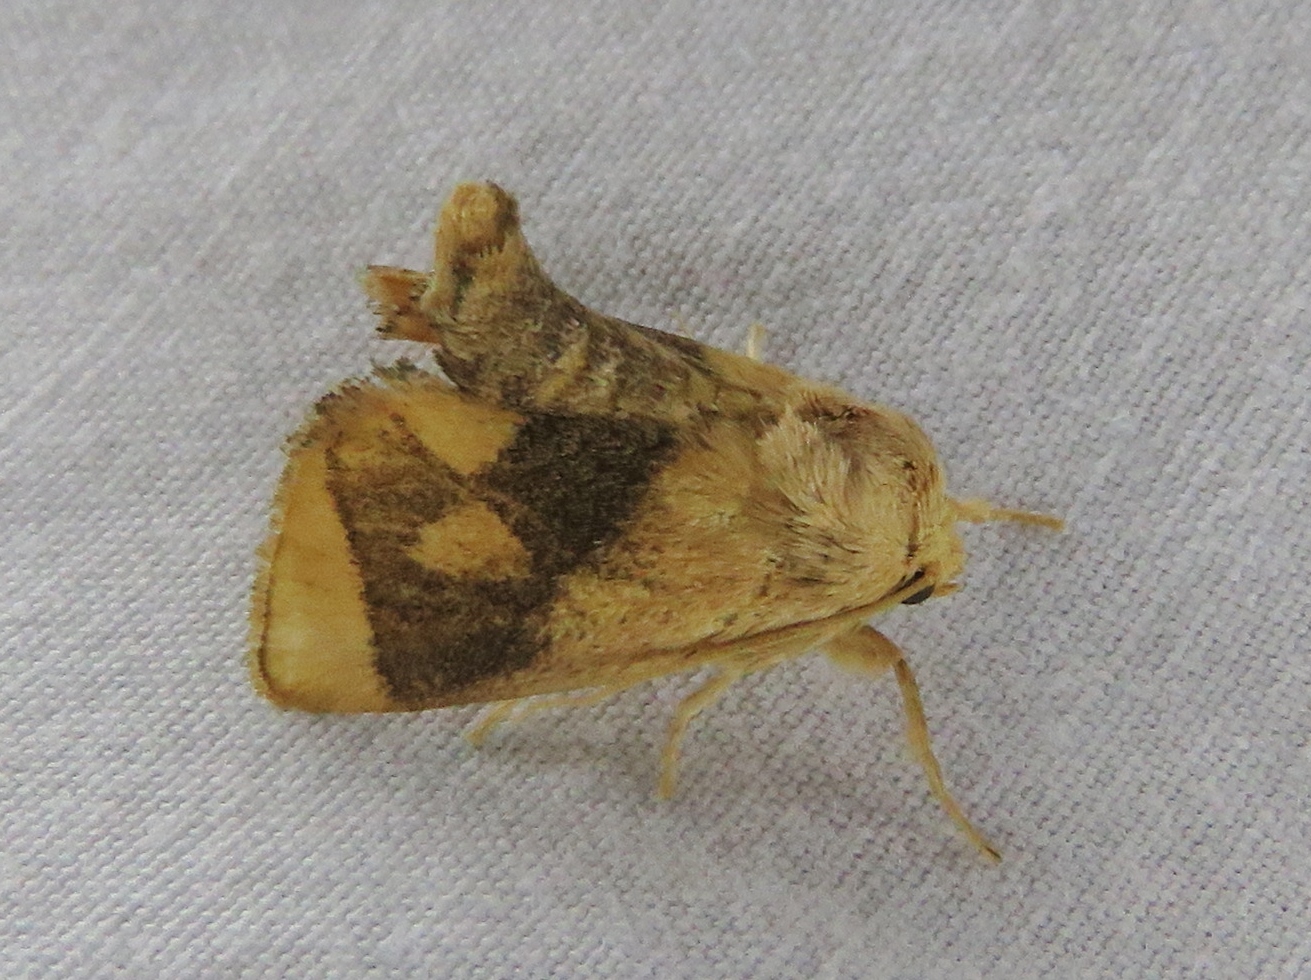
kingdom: Animalia
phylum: Arthropoda
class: Insecta
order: Lepidoptera
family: Limacodidae
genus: Apoda
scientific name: Apoda y-inversa
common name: Yellow-collared slug moth
